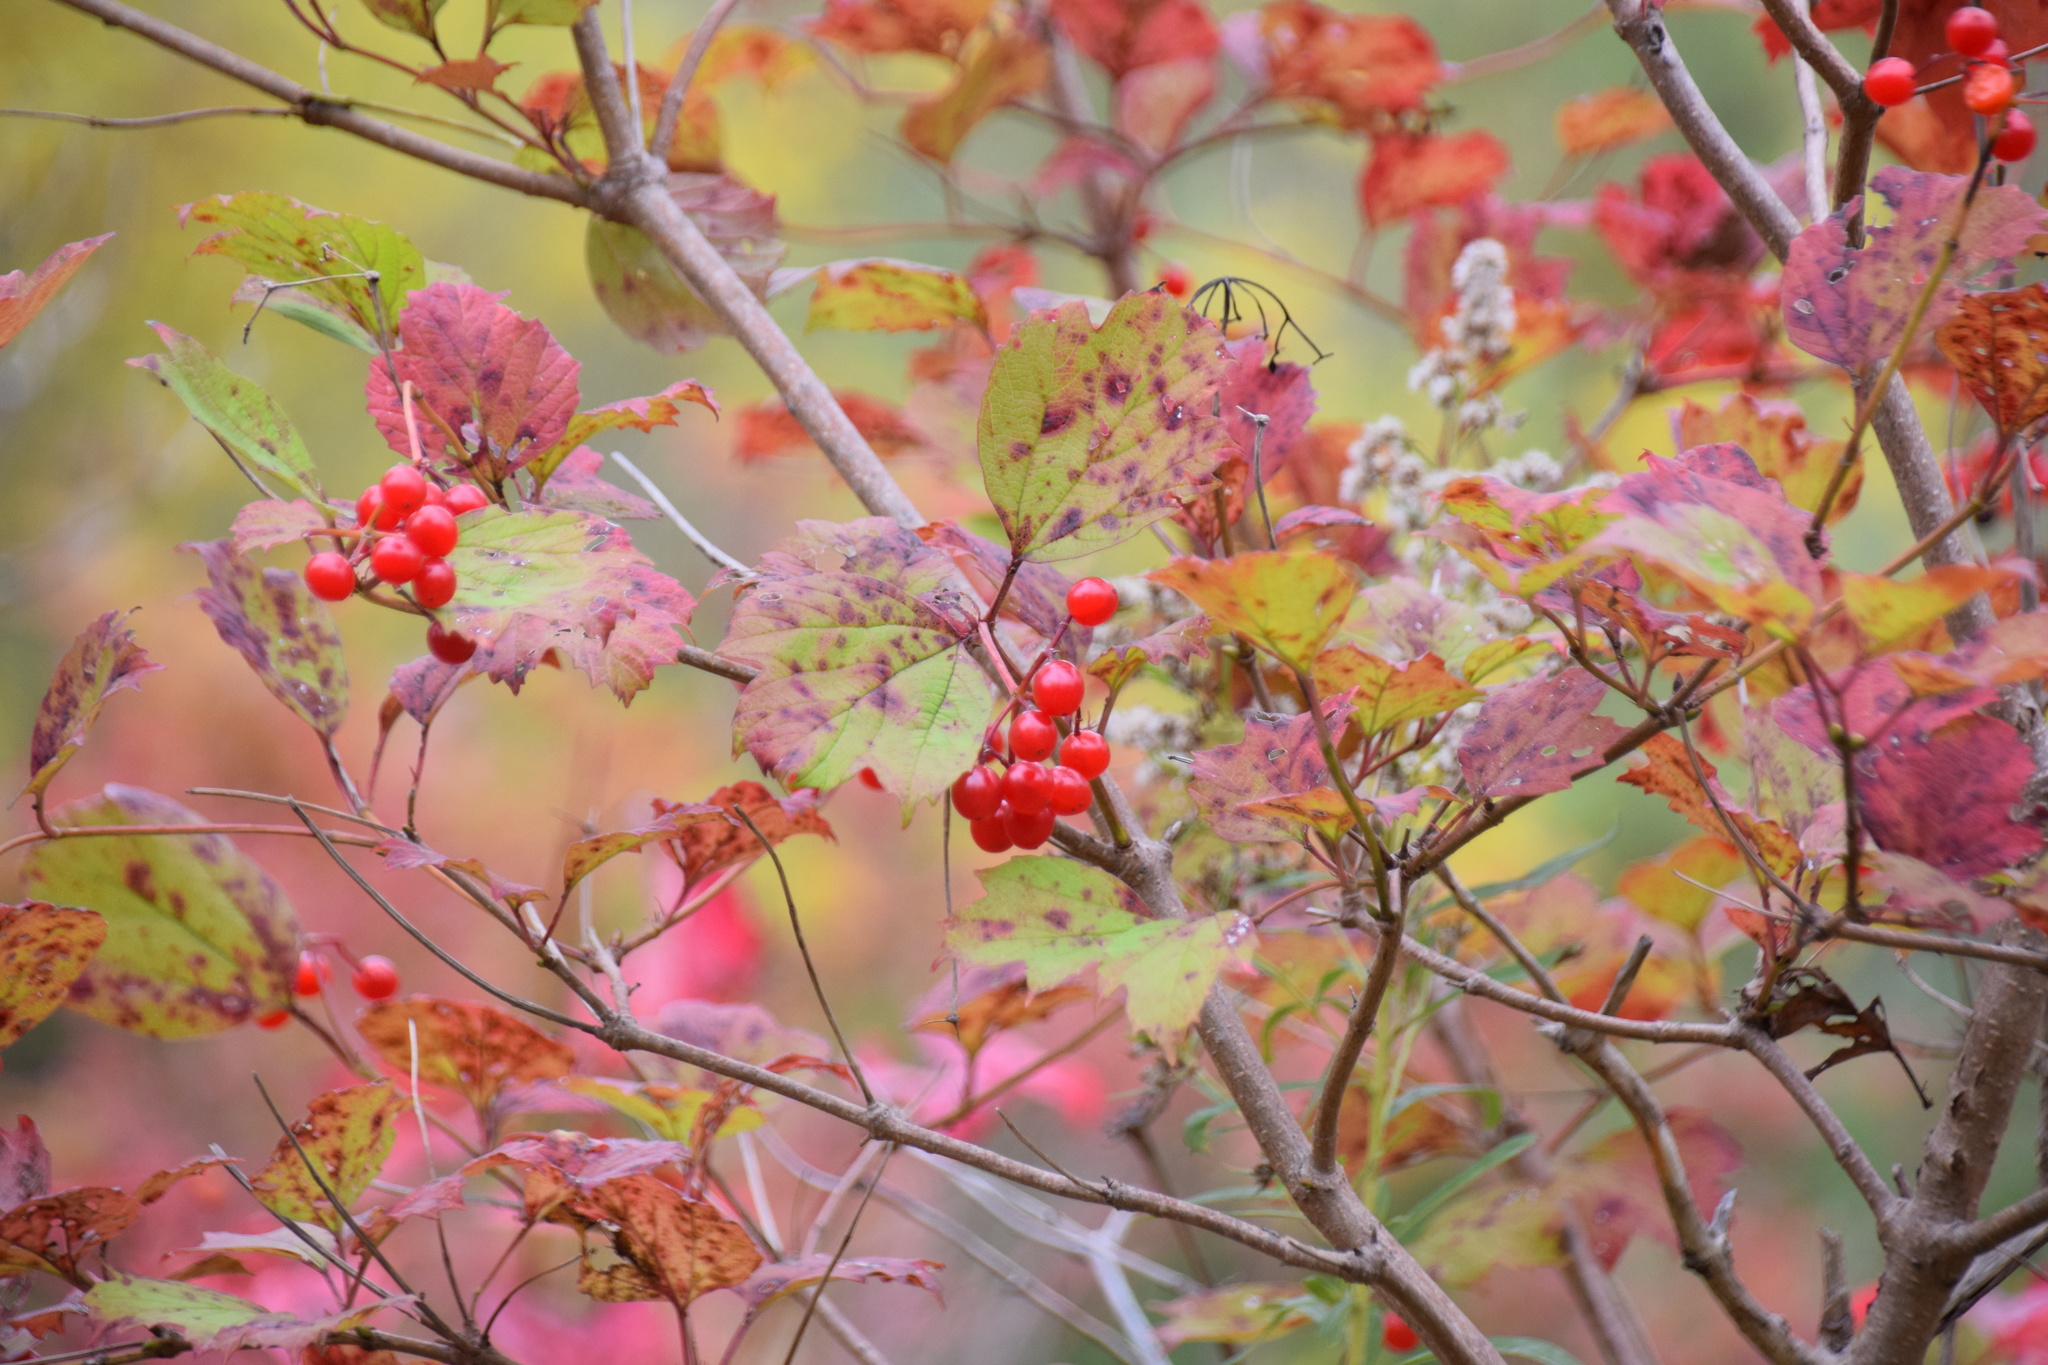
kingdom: Plantae
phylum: Tracheophyta
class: Magnoliopsida
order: Dipsacales
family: Viburnaceae
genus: Viburnum
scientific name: Viburnum opulus
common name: Guelder-rose
